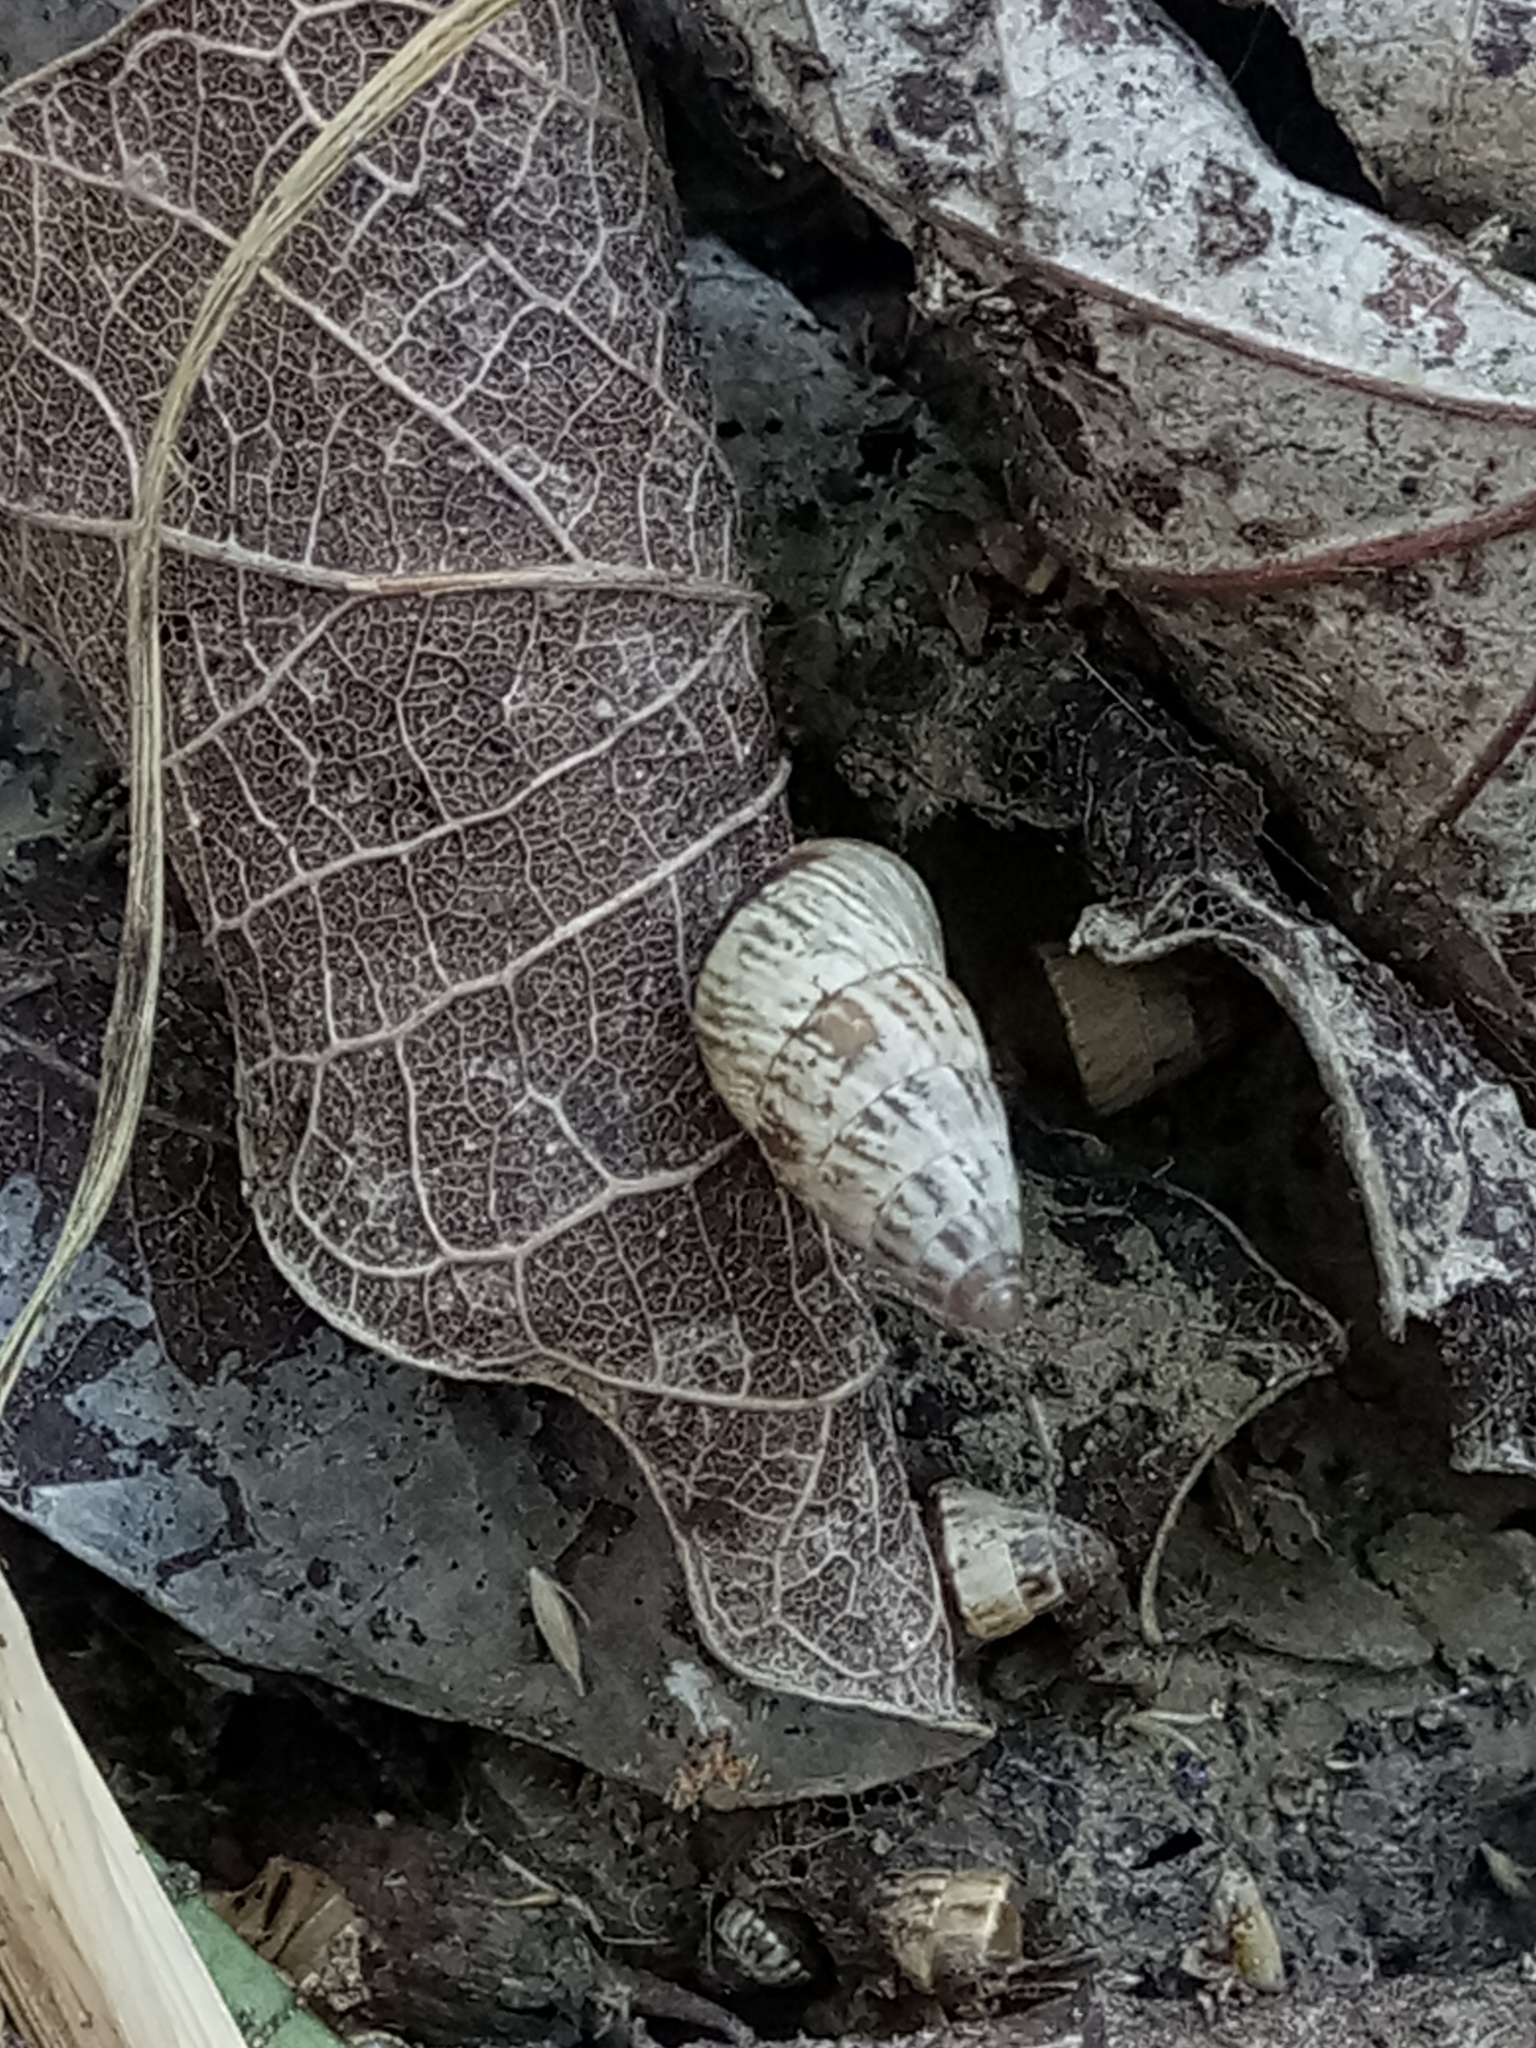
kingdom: Animalia
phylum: Mollusca
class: Gastropoda
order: Stylommatophora
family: Geomitridae
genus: Cochlicella
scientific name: Cochlicella acuta
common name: Pointed snail
